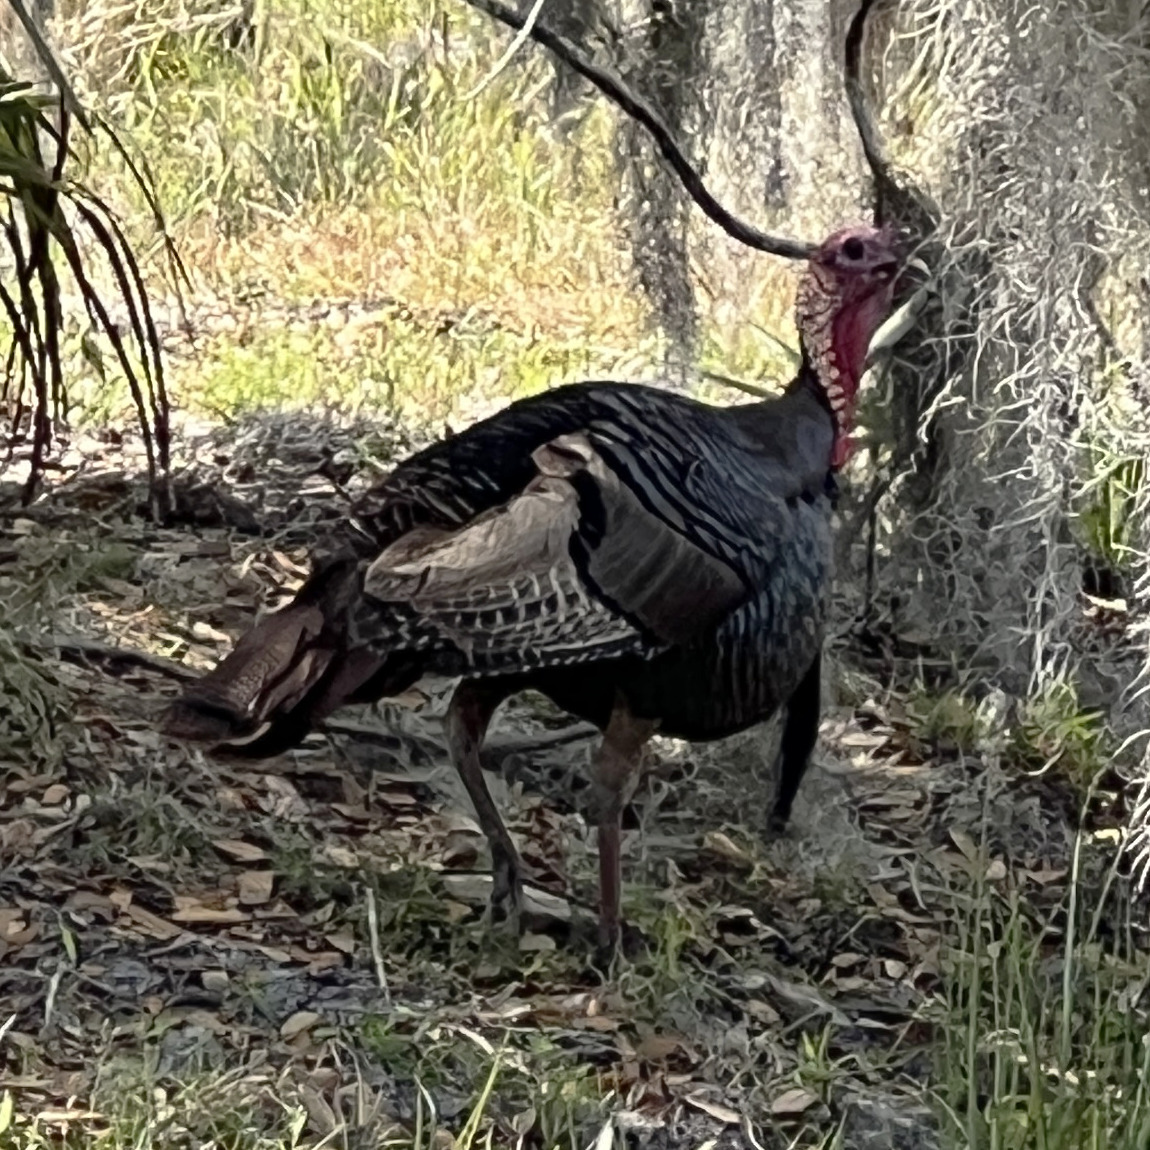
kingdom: Animalia
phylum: Chordata
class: Aves
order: Galliformes
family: Phasianidae
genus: Meleagris
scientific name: Meleagris gallopavo
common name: Wild turkey
